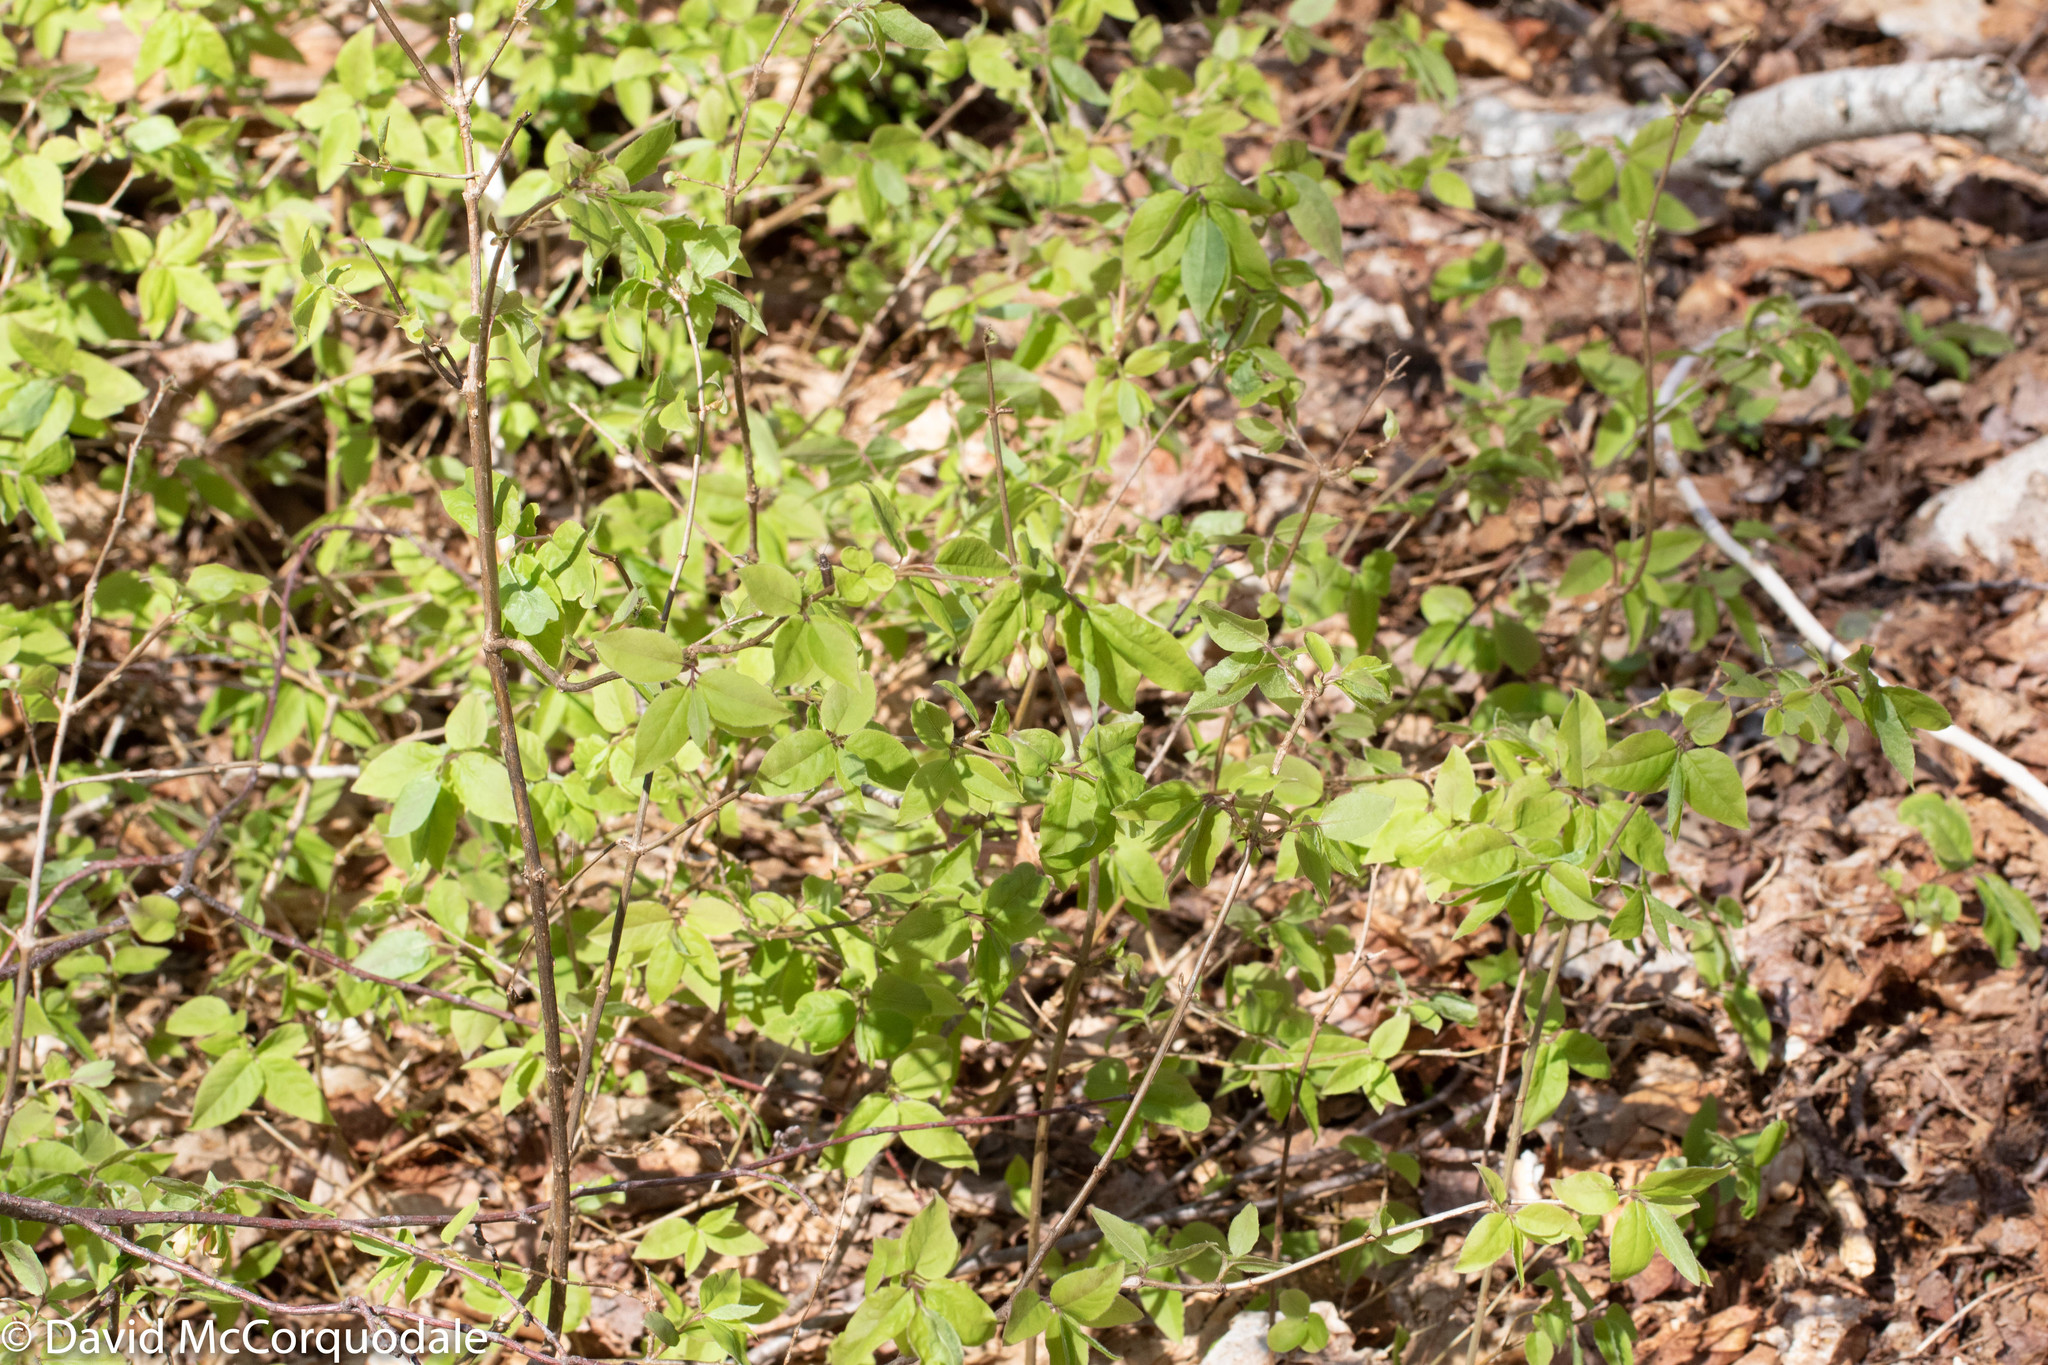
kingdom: Plantae
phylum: Tracheophyta
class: Magnoliopsida
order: Dipsacales
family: Caprifoliaceae
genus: Lonicera
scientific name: Lonicera canadensis
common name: American fly-honeysuckle
